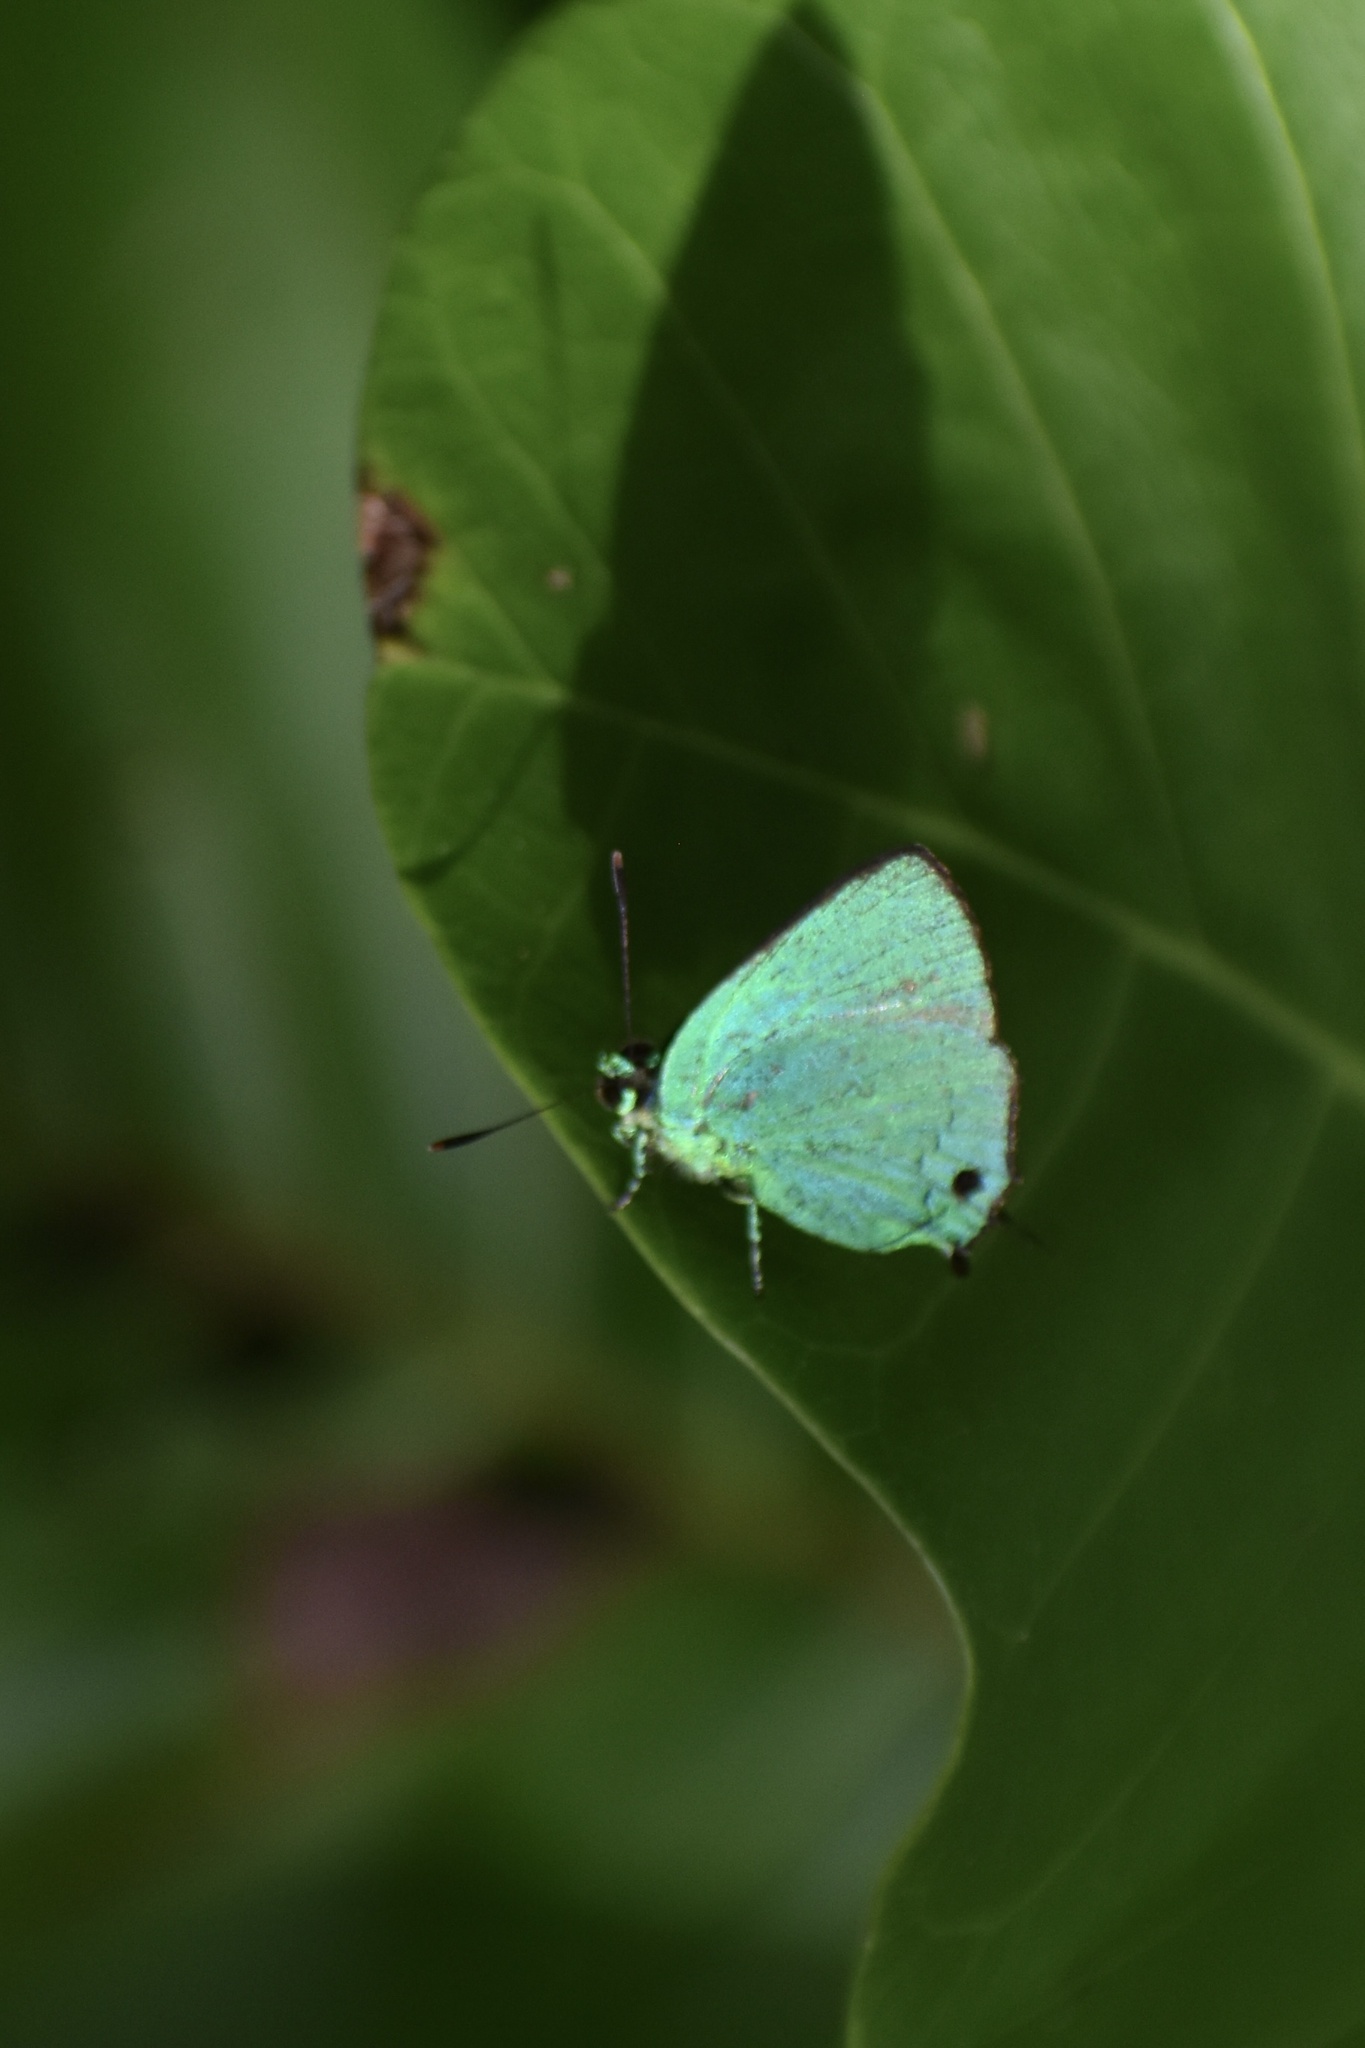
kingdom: Animalia
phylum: Arthropoda
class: Insecta
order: Lepidoptera
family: Lycaenidae
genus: Chalybs
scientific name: Chalybs cecina
